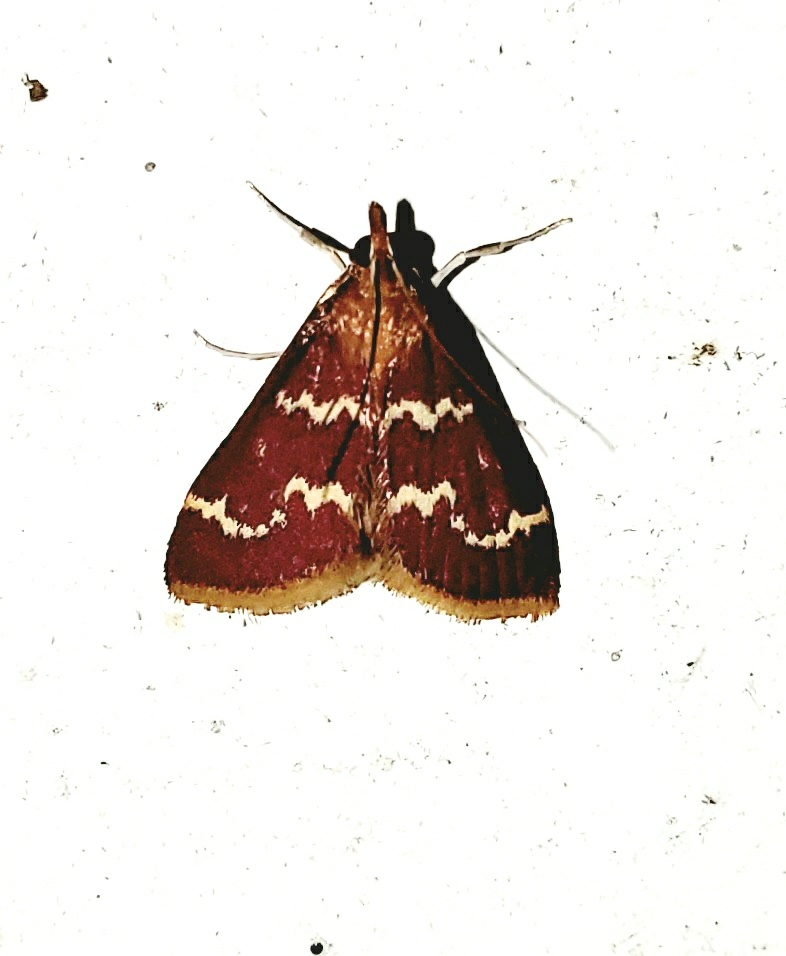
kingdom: Animalia
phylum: Arthropoda
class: Insecta
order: Lepidoptera
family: Crambidae
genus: Pyrausta
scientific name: Pyrausta signatalis
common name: Raspberry pyrausta moth
